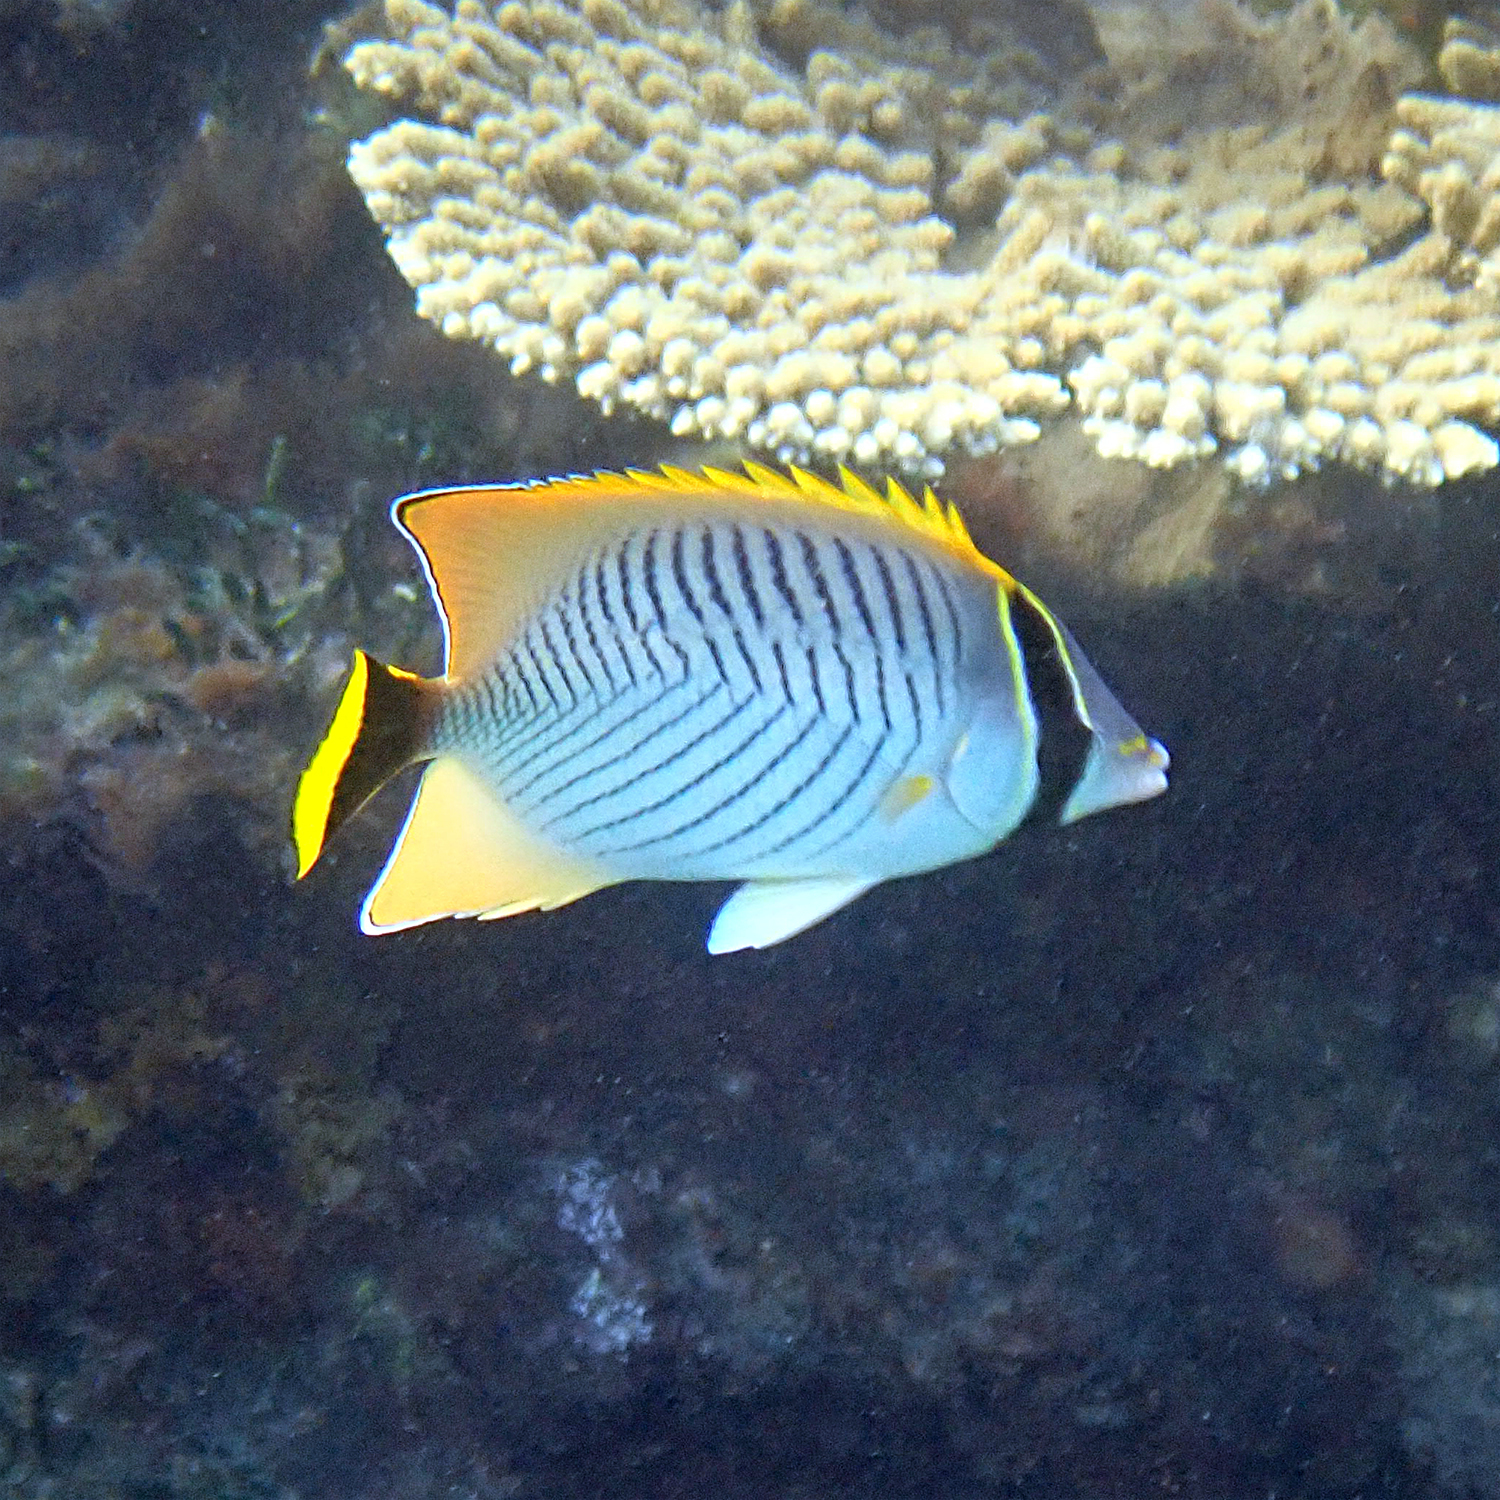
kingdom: Animalia
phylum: Chordata
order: Perciformes
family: Chaetodontidae
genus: Chaetodon
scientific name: Chaetodon trifascialis
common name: Chevroned butterflyfish
